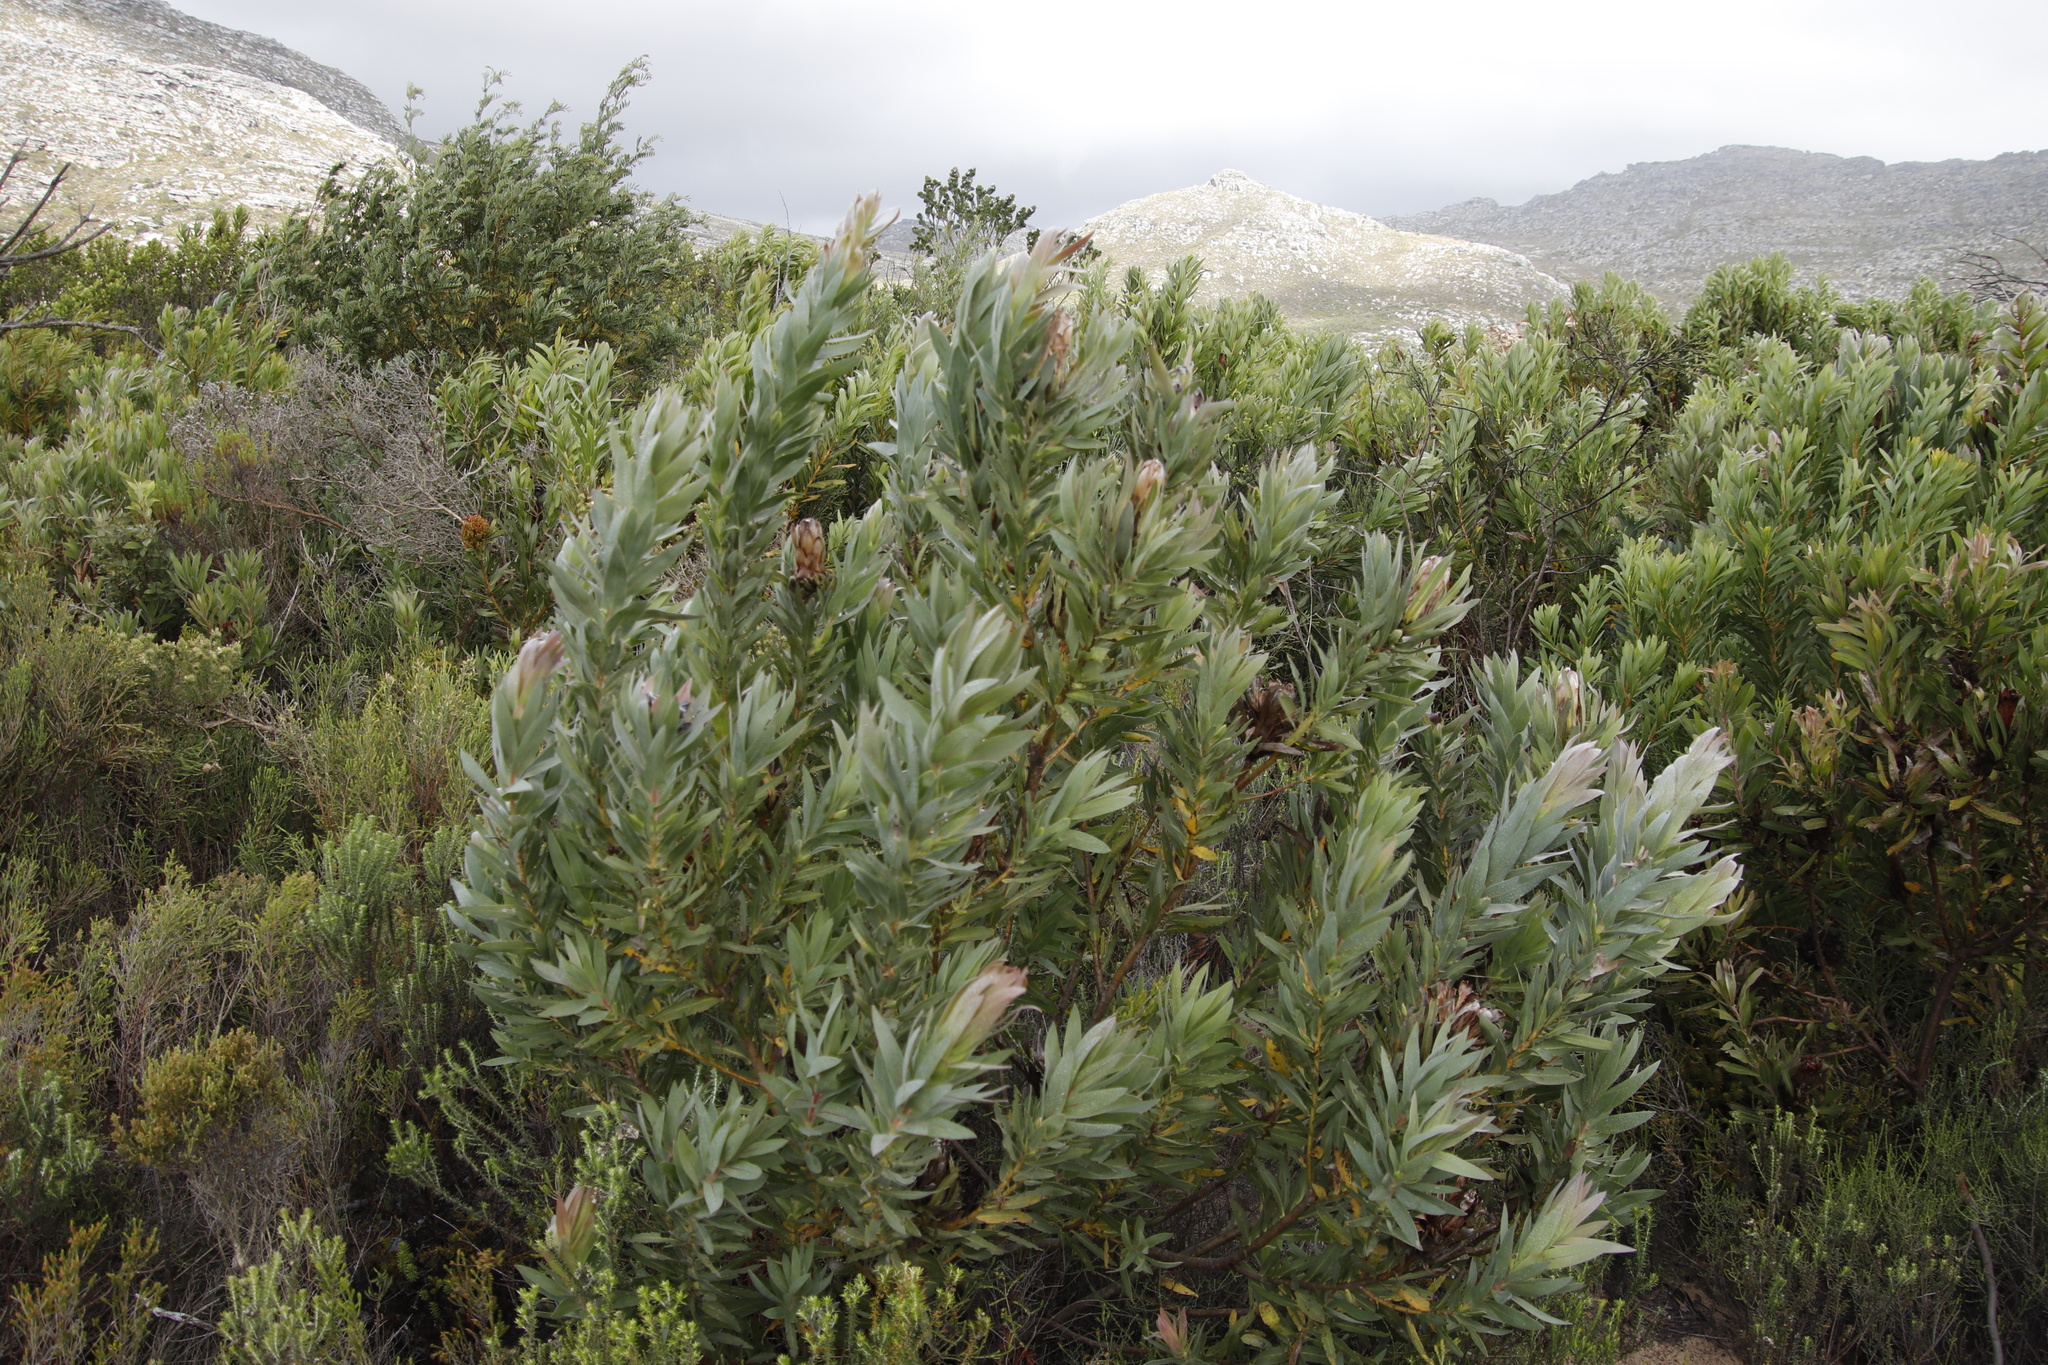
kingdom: Plantae
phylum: Tracheophyta
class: Magnoliopsida
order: Proteales
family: Proteaceae
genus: Protea
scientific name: Protea coronata
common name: Green sugarbush
